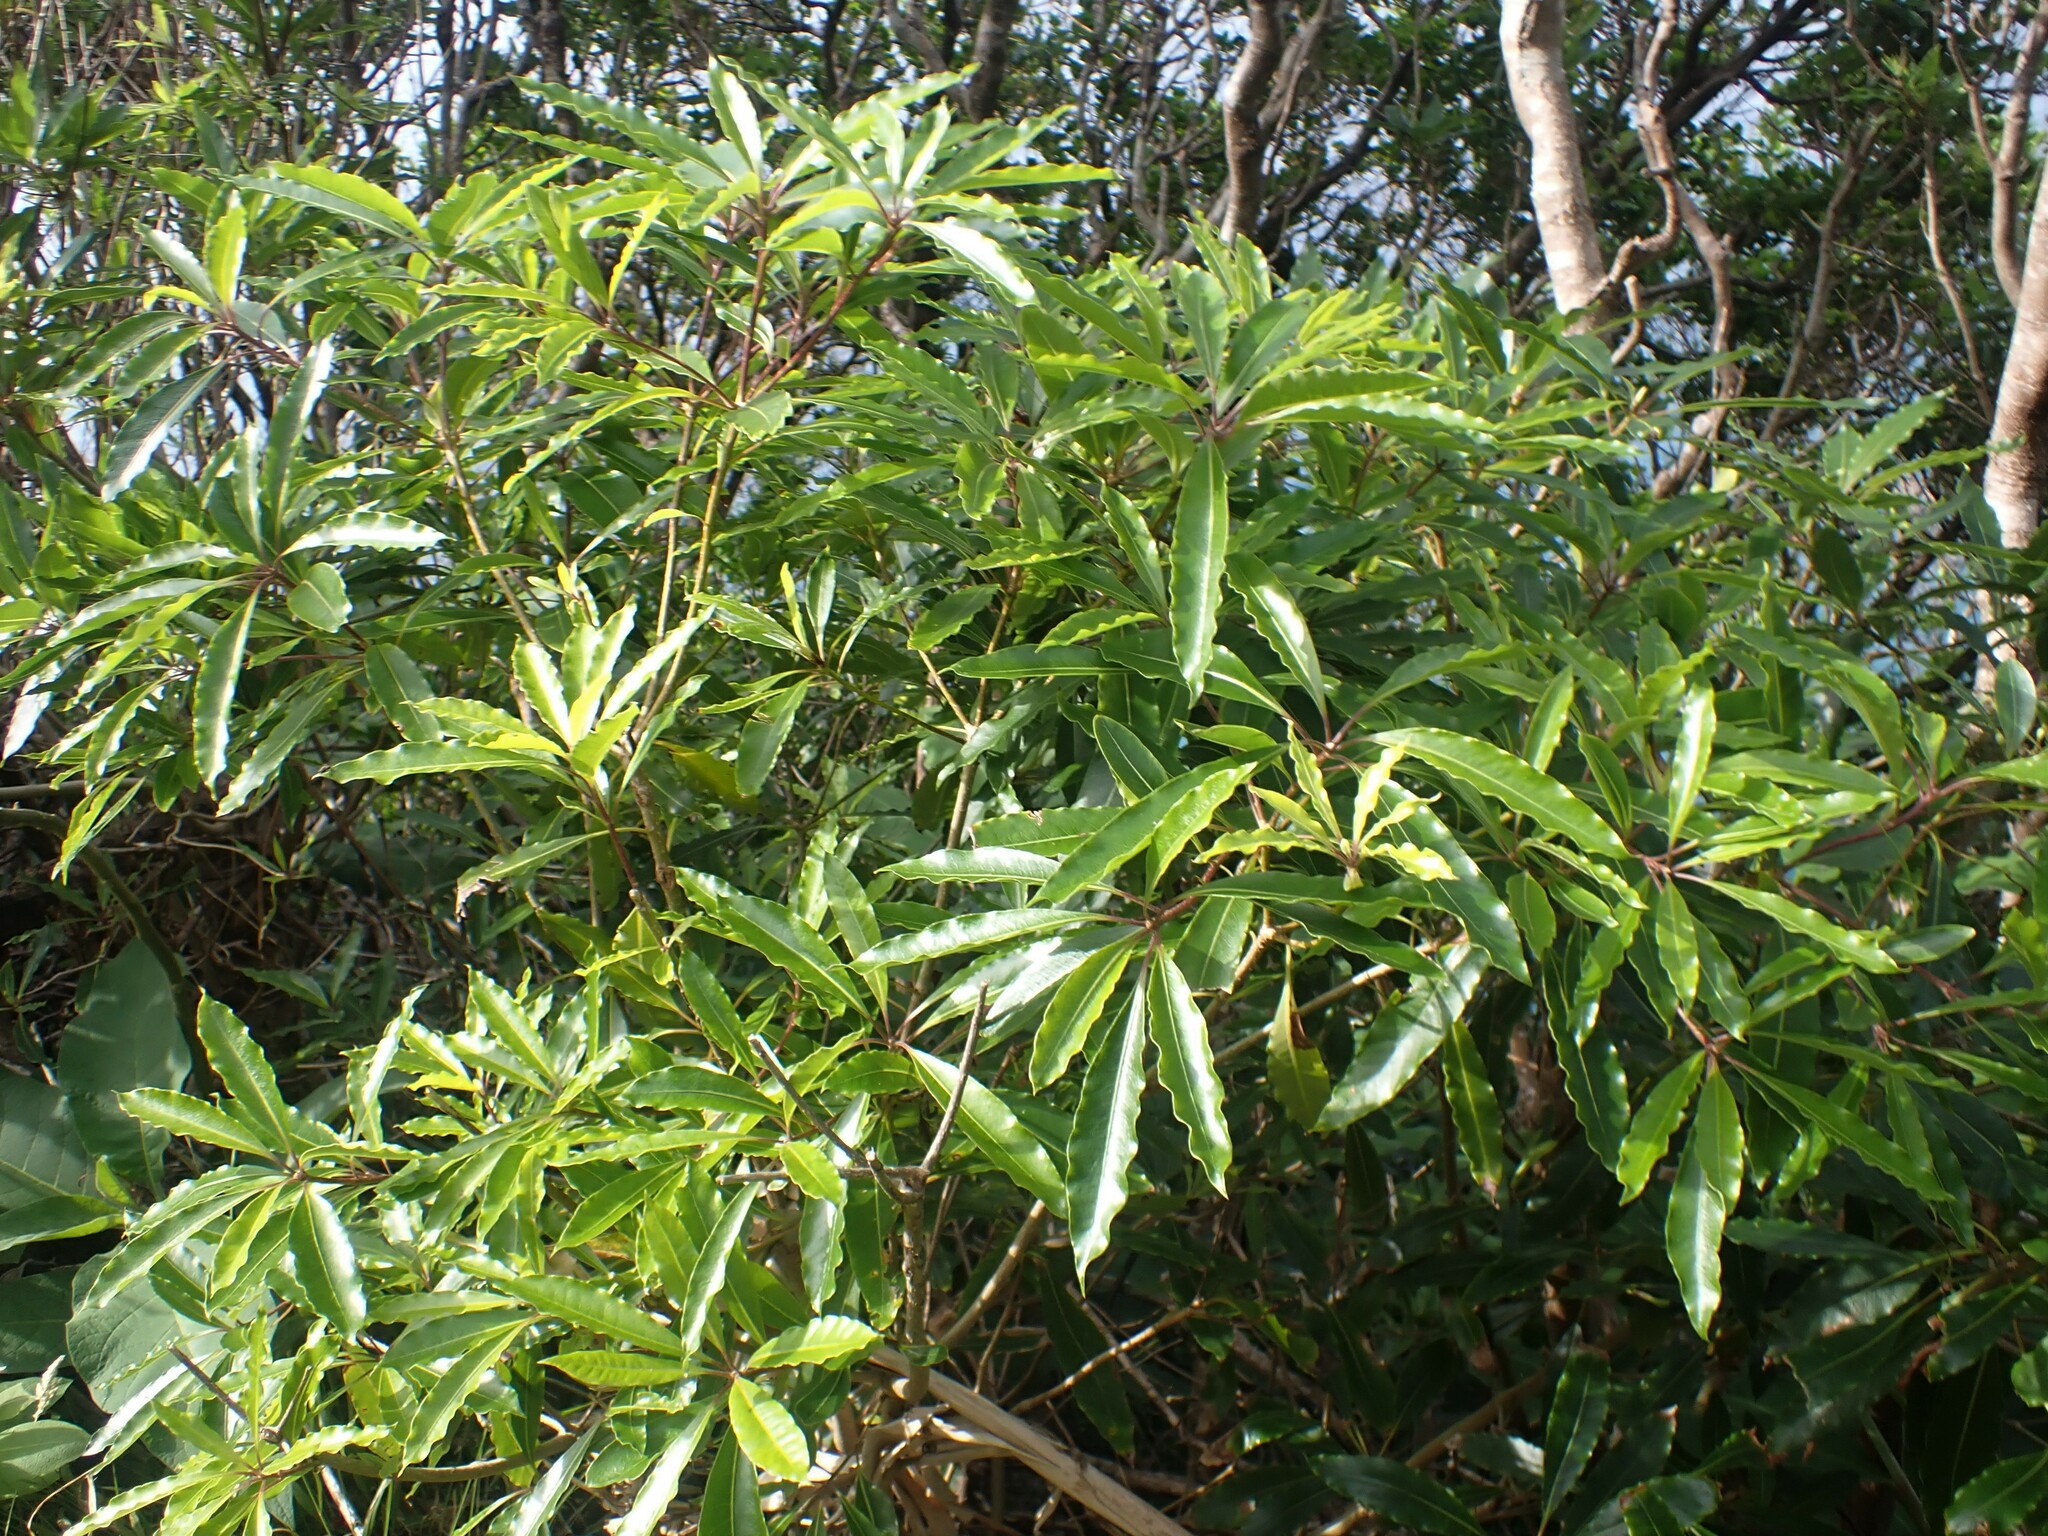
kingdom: Plantae
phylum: Tracheophyta
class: Magnoliopsida
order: Apiales
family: Pittosporaceae
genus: Pittosporum
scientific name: Pittosporum undulatum
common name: Australian cheesewood
